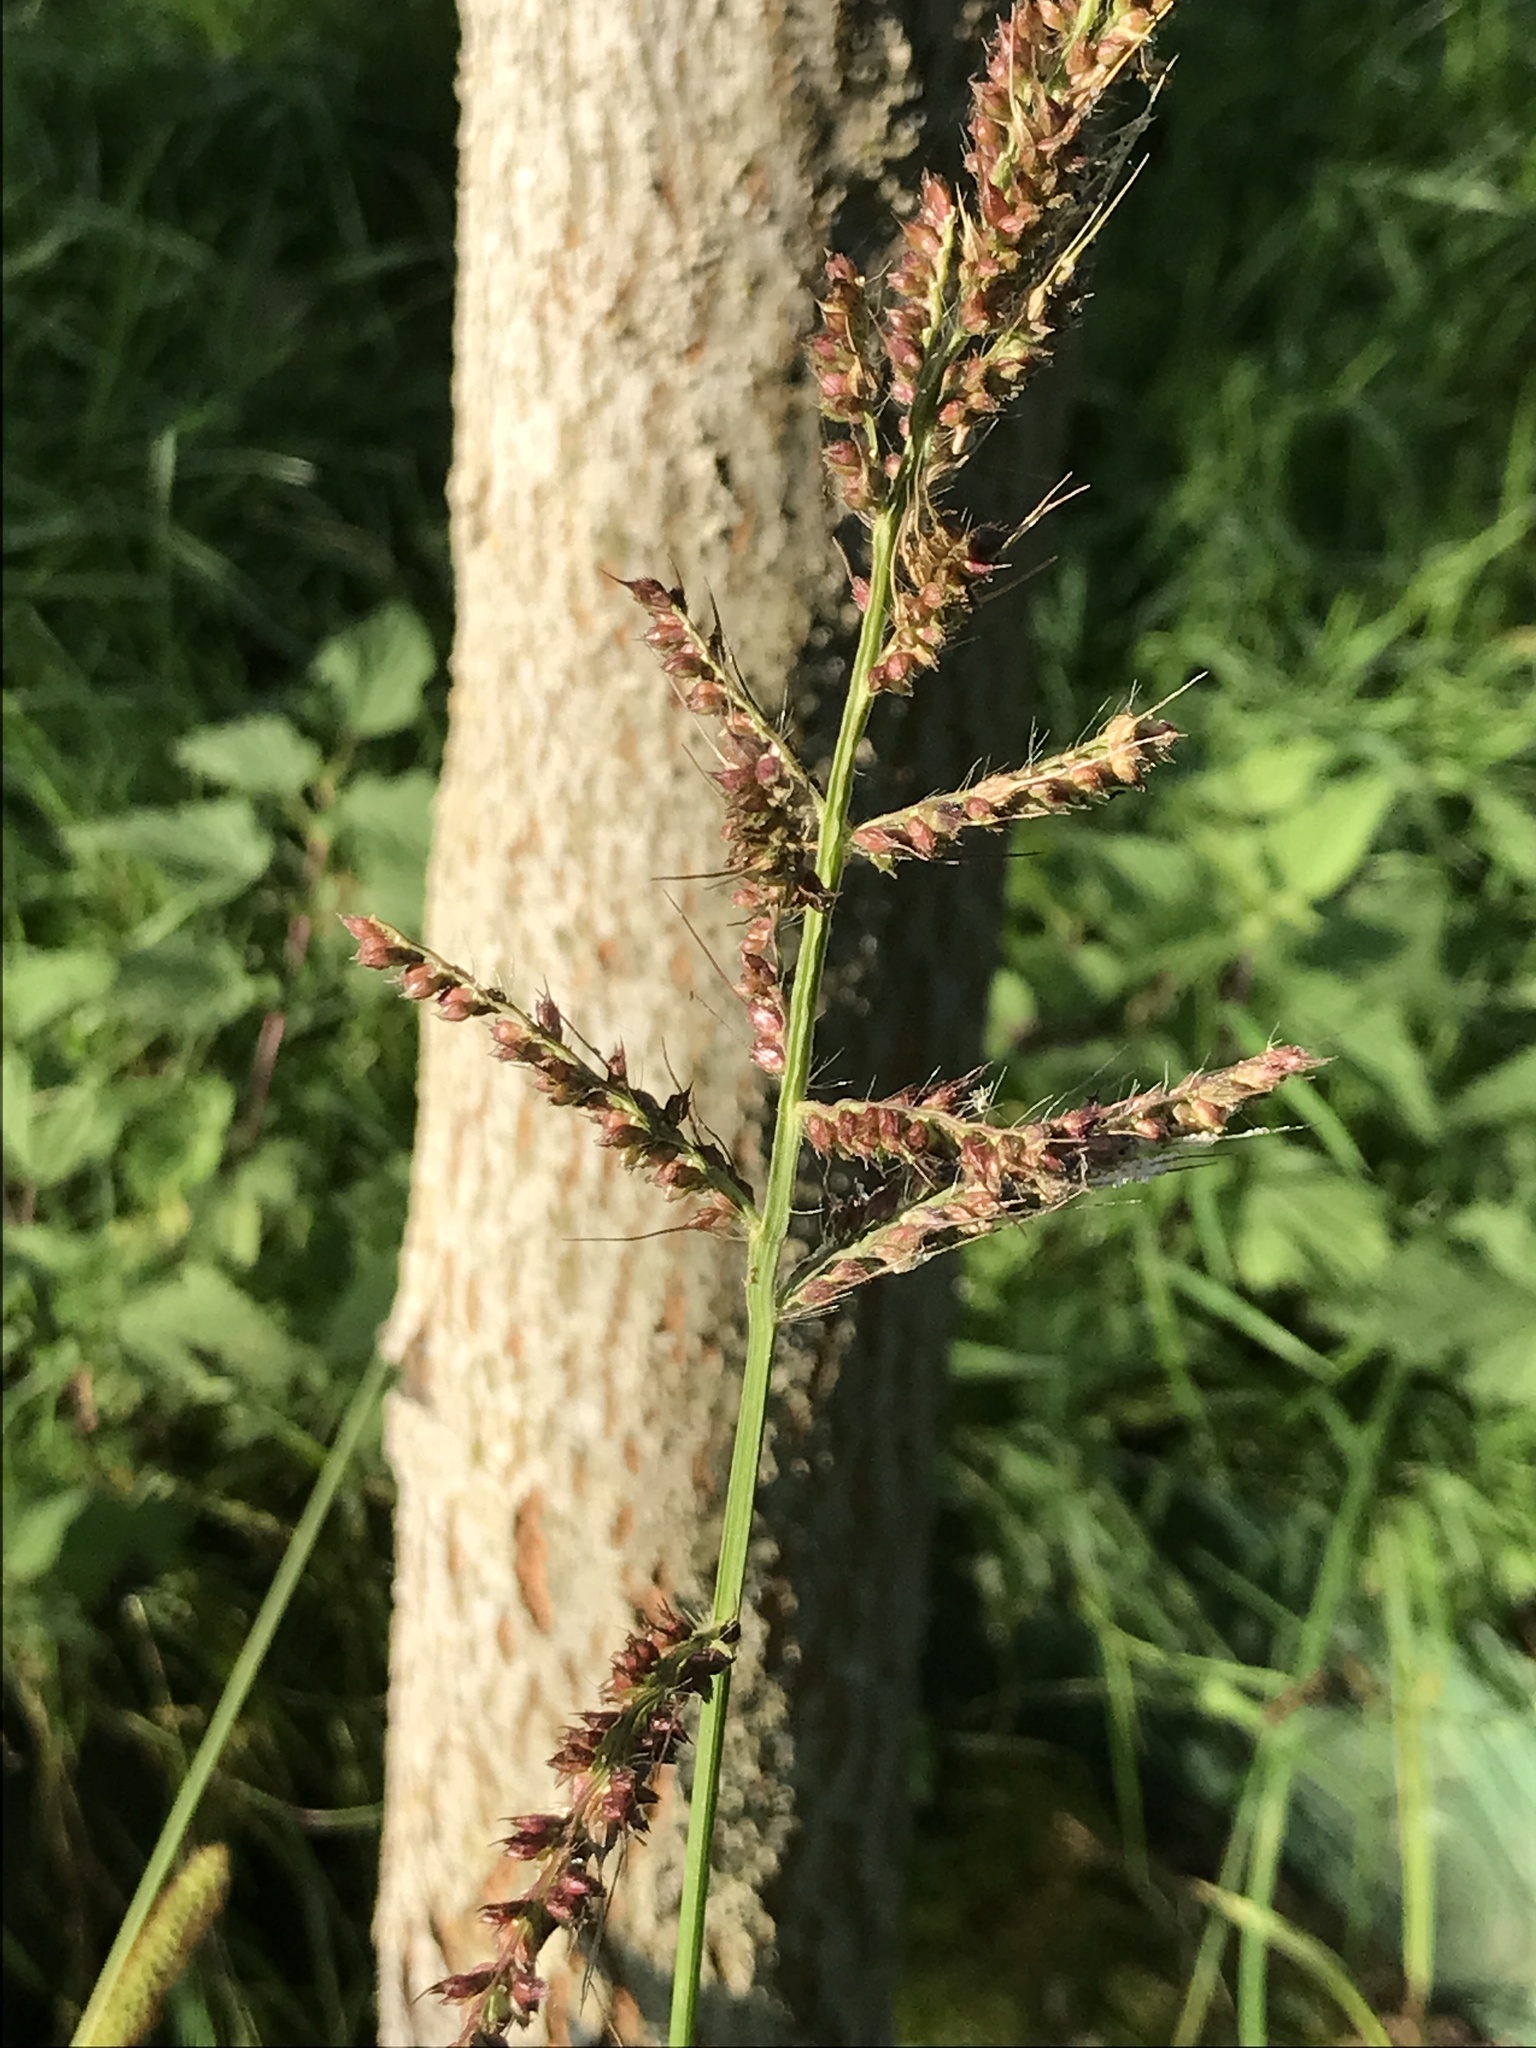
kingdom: Plantae
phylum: Tracheophyta
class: Liliopsida
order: Poales
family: Poaceae
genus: Echinochloa
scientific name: Echinochloa crus-galli
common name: Cockspur
